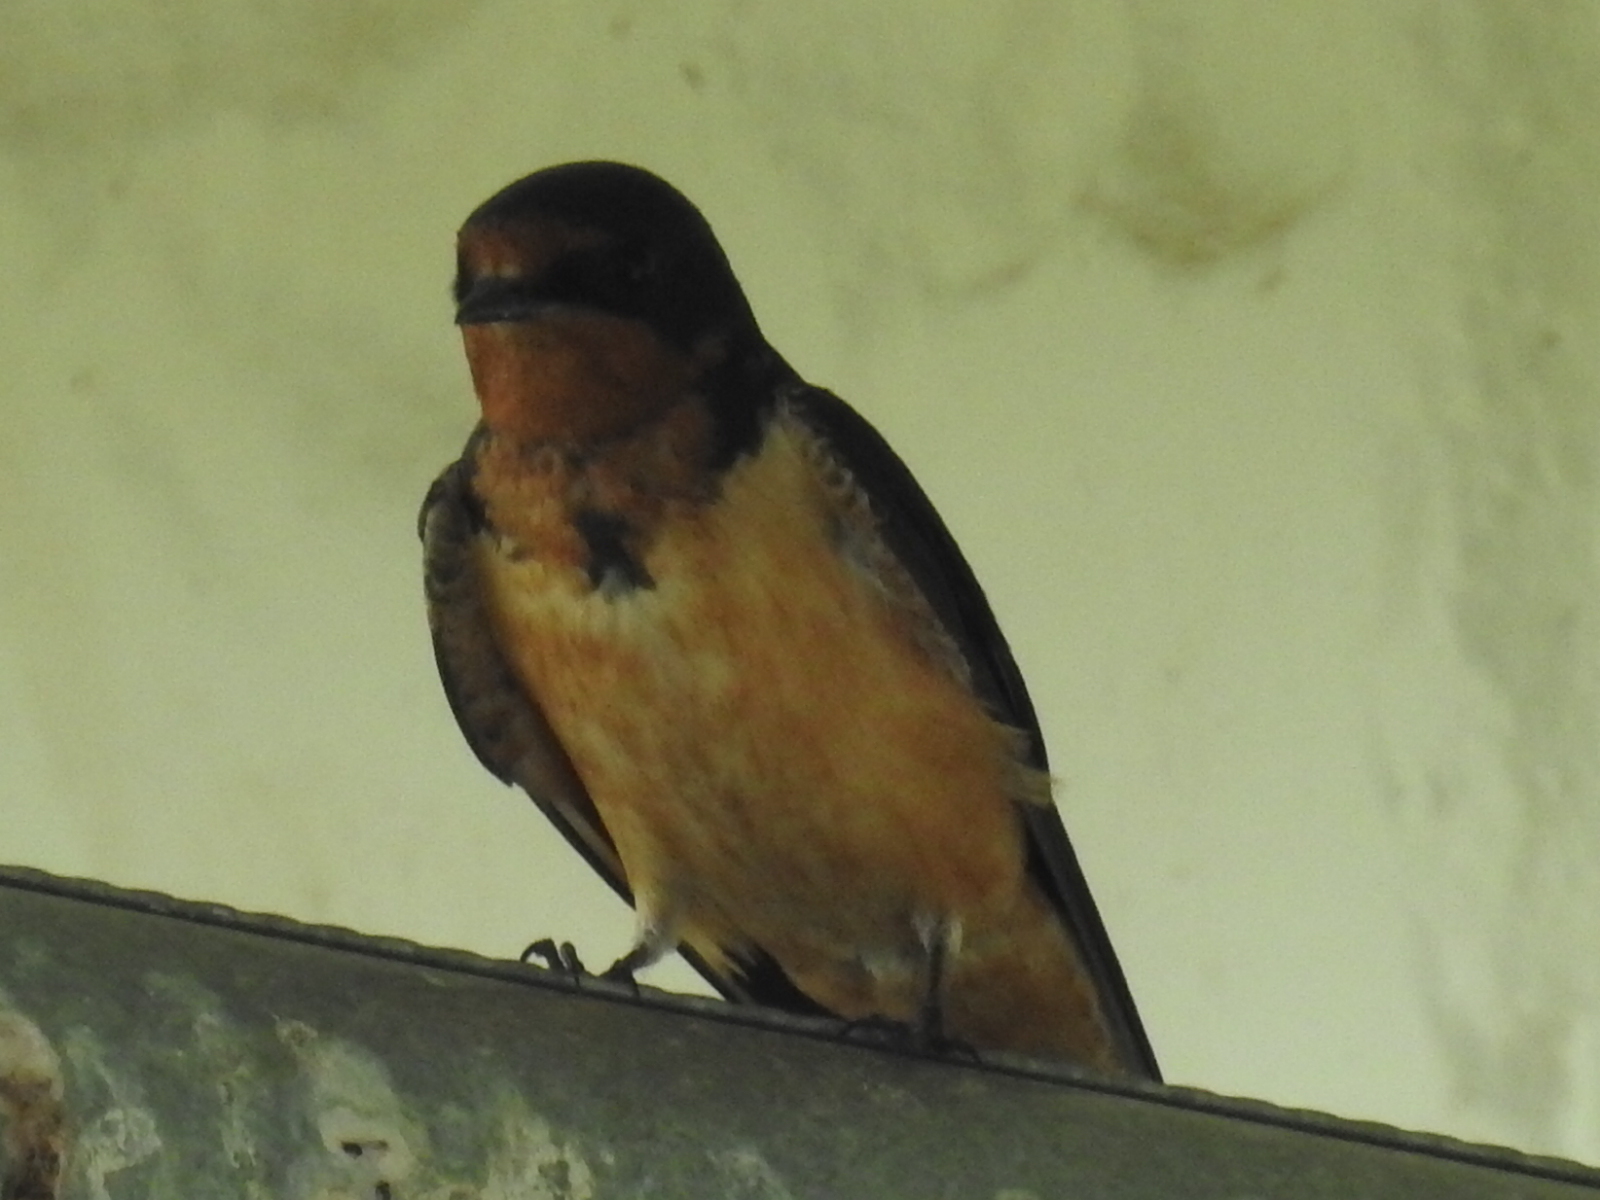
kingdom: Animalia
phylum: Chordata
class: Aves
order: Passeriformes
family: Hirundinidae
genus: Hirundo
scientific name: Hirundo rustica
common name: Barn swallow
